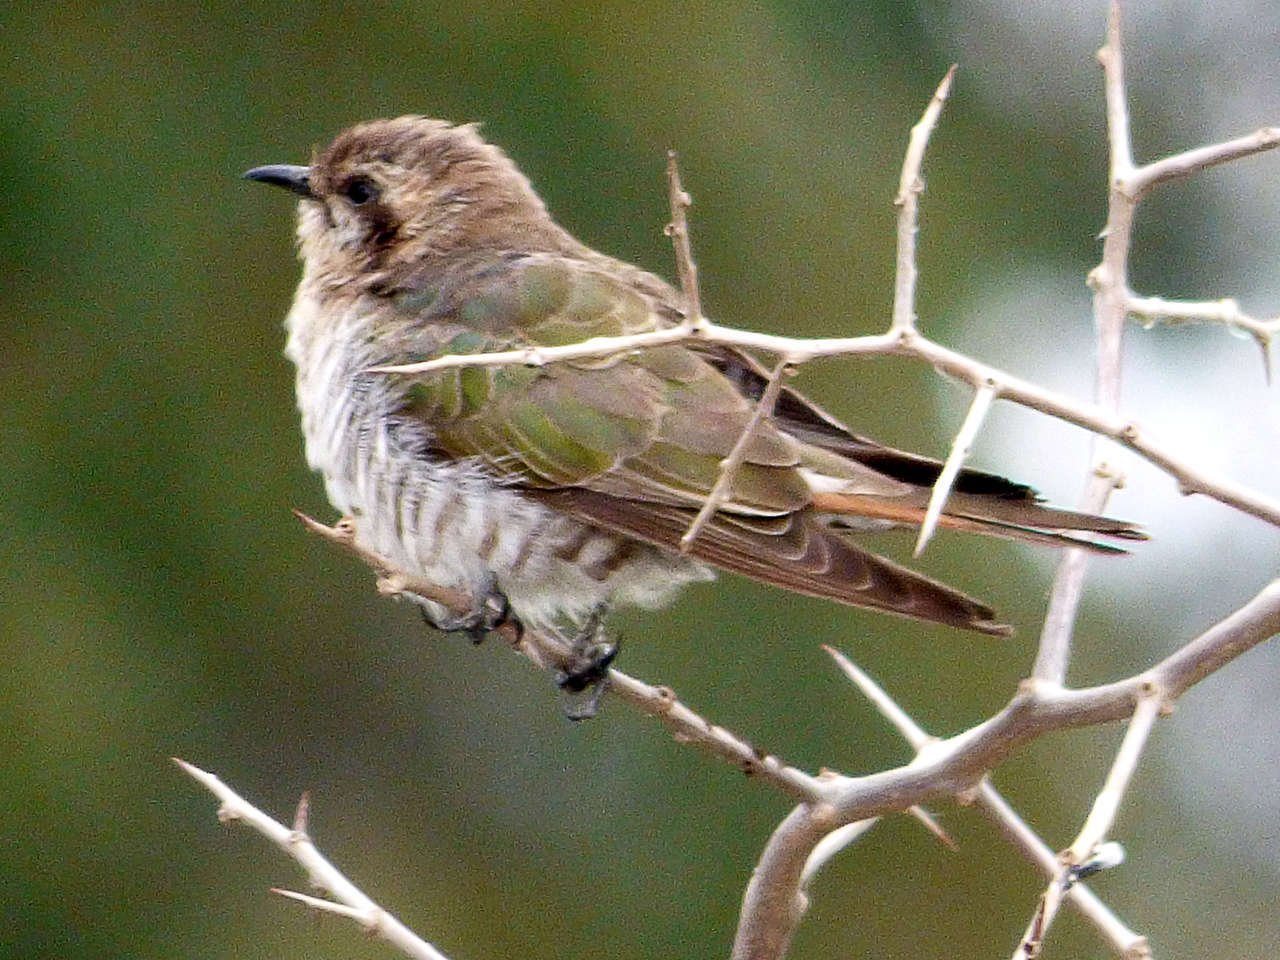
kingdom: Animalia
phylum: Chordata
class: Aves
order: Cuculiformes
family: Cuculidae
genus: Chrysococcyx
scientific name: Chrysococcyx basalis
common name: Horsfield's bronze cuckoo
